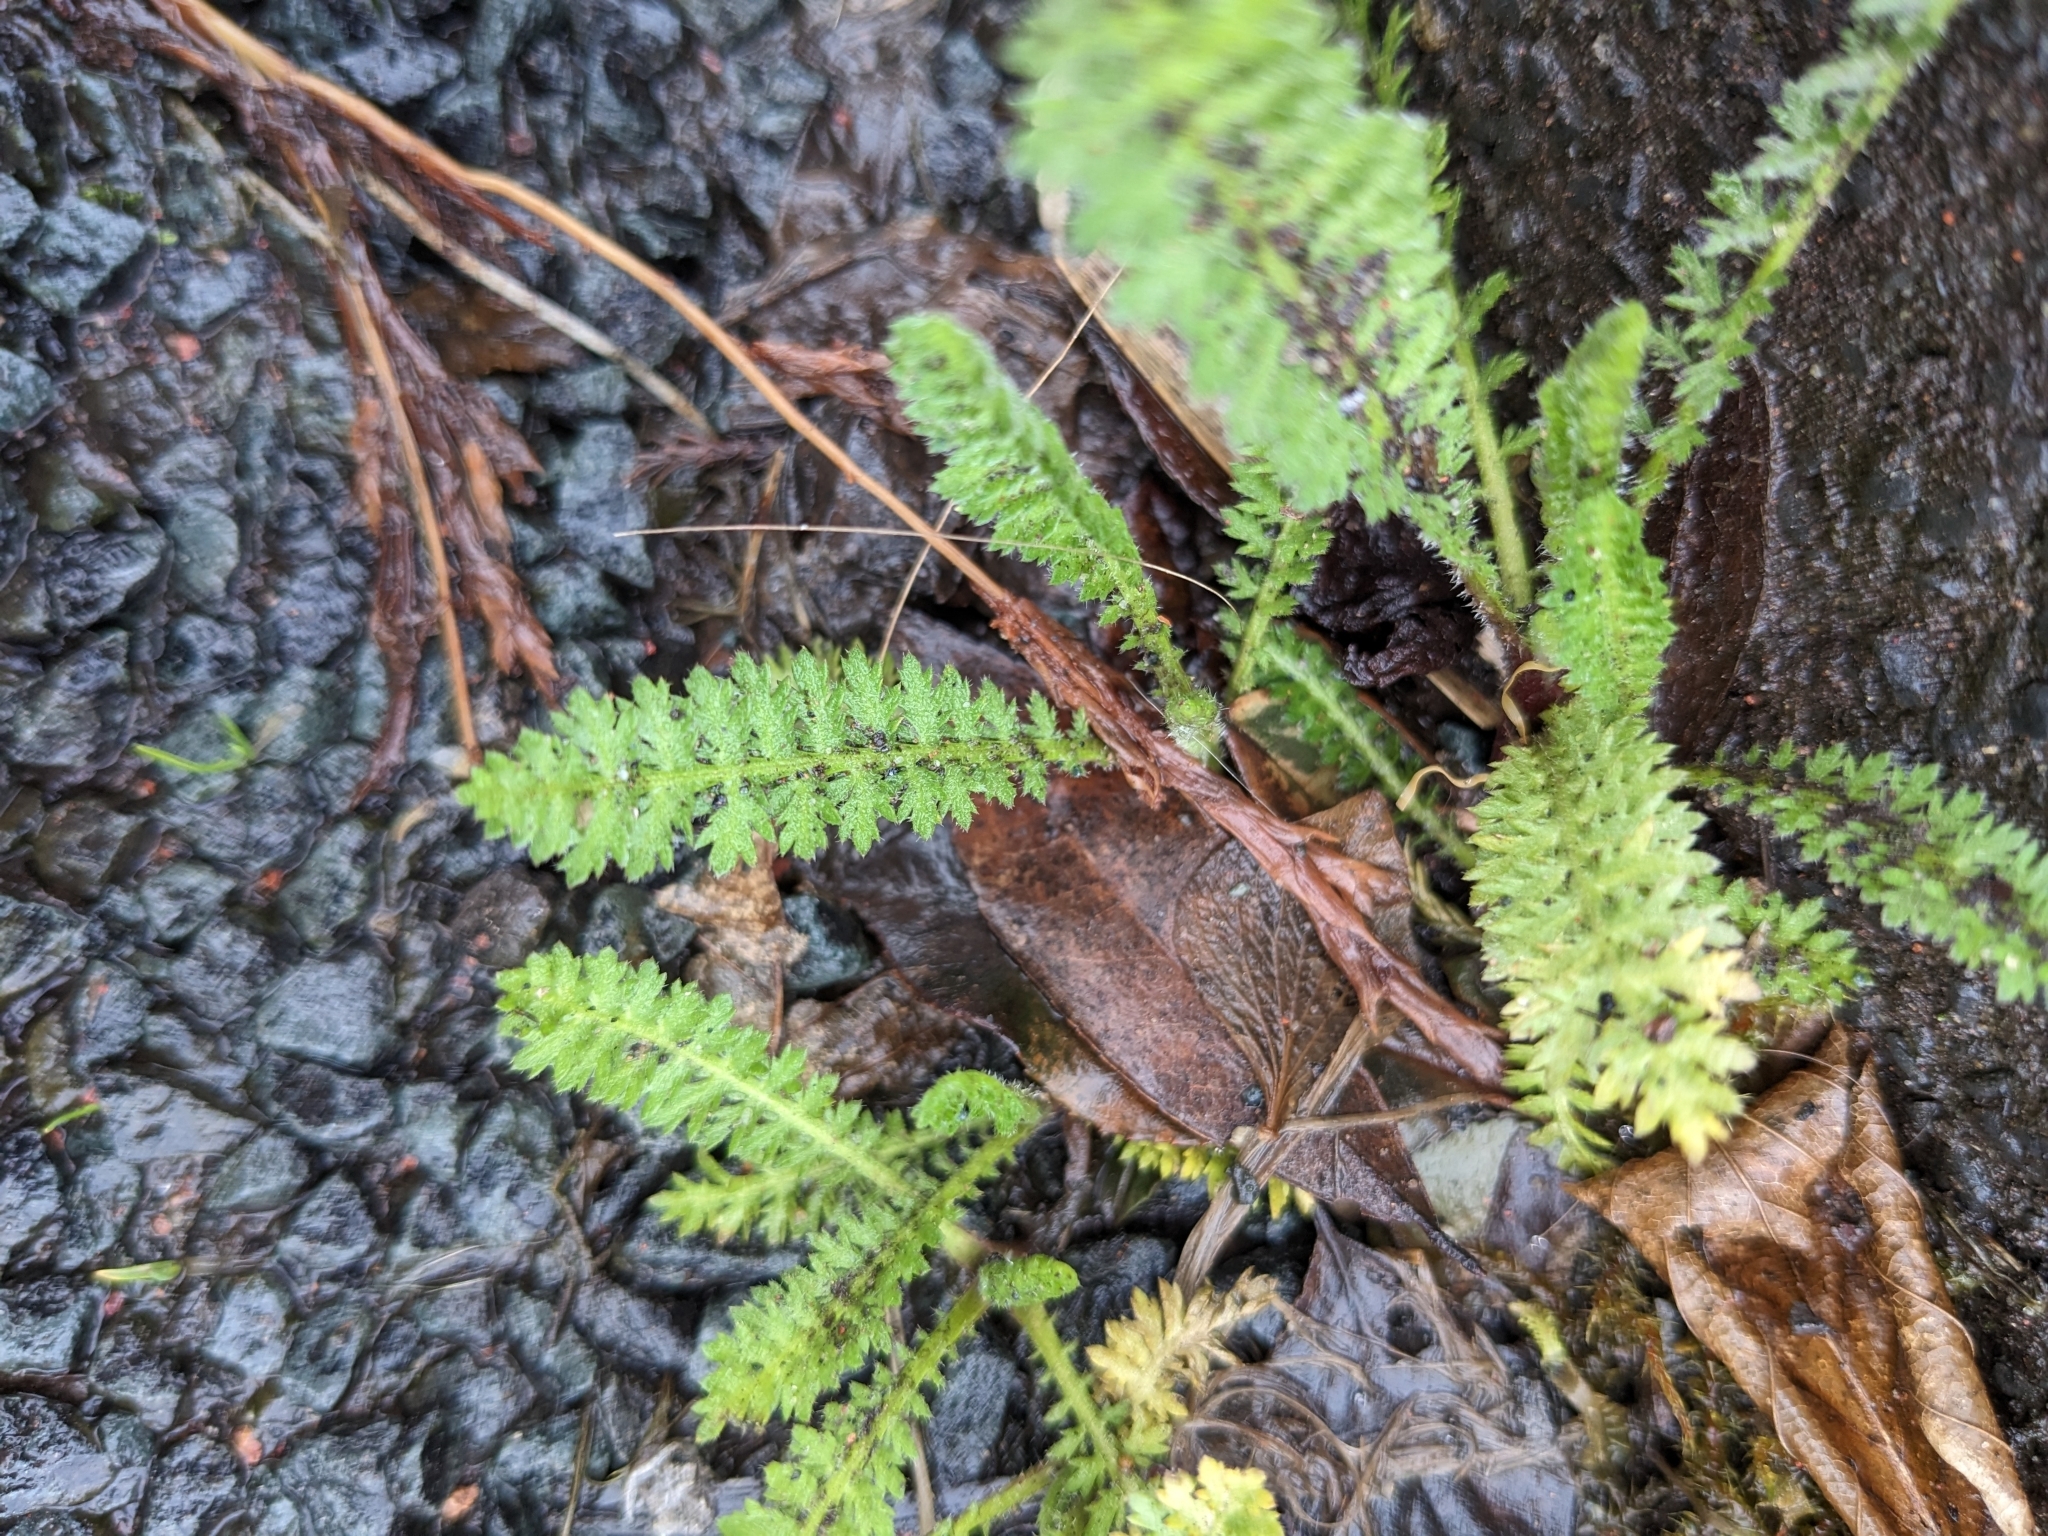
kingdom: Plantae
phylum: Tracheophyta
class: Magnoliopsida
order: Asterales
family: Asteraceae
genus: Achillea
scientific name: Achillea millefolium
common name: Yarrow
